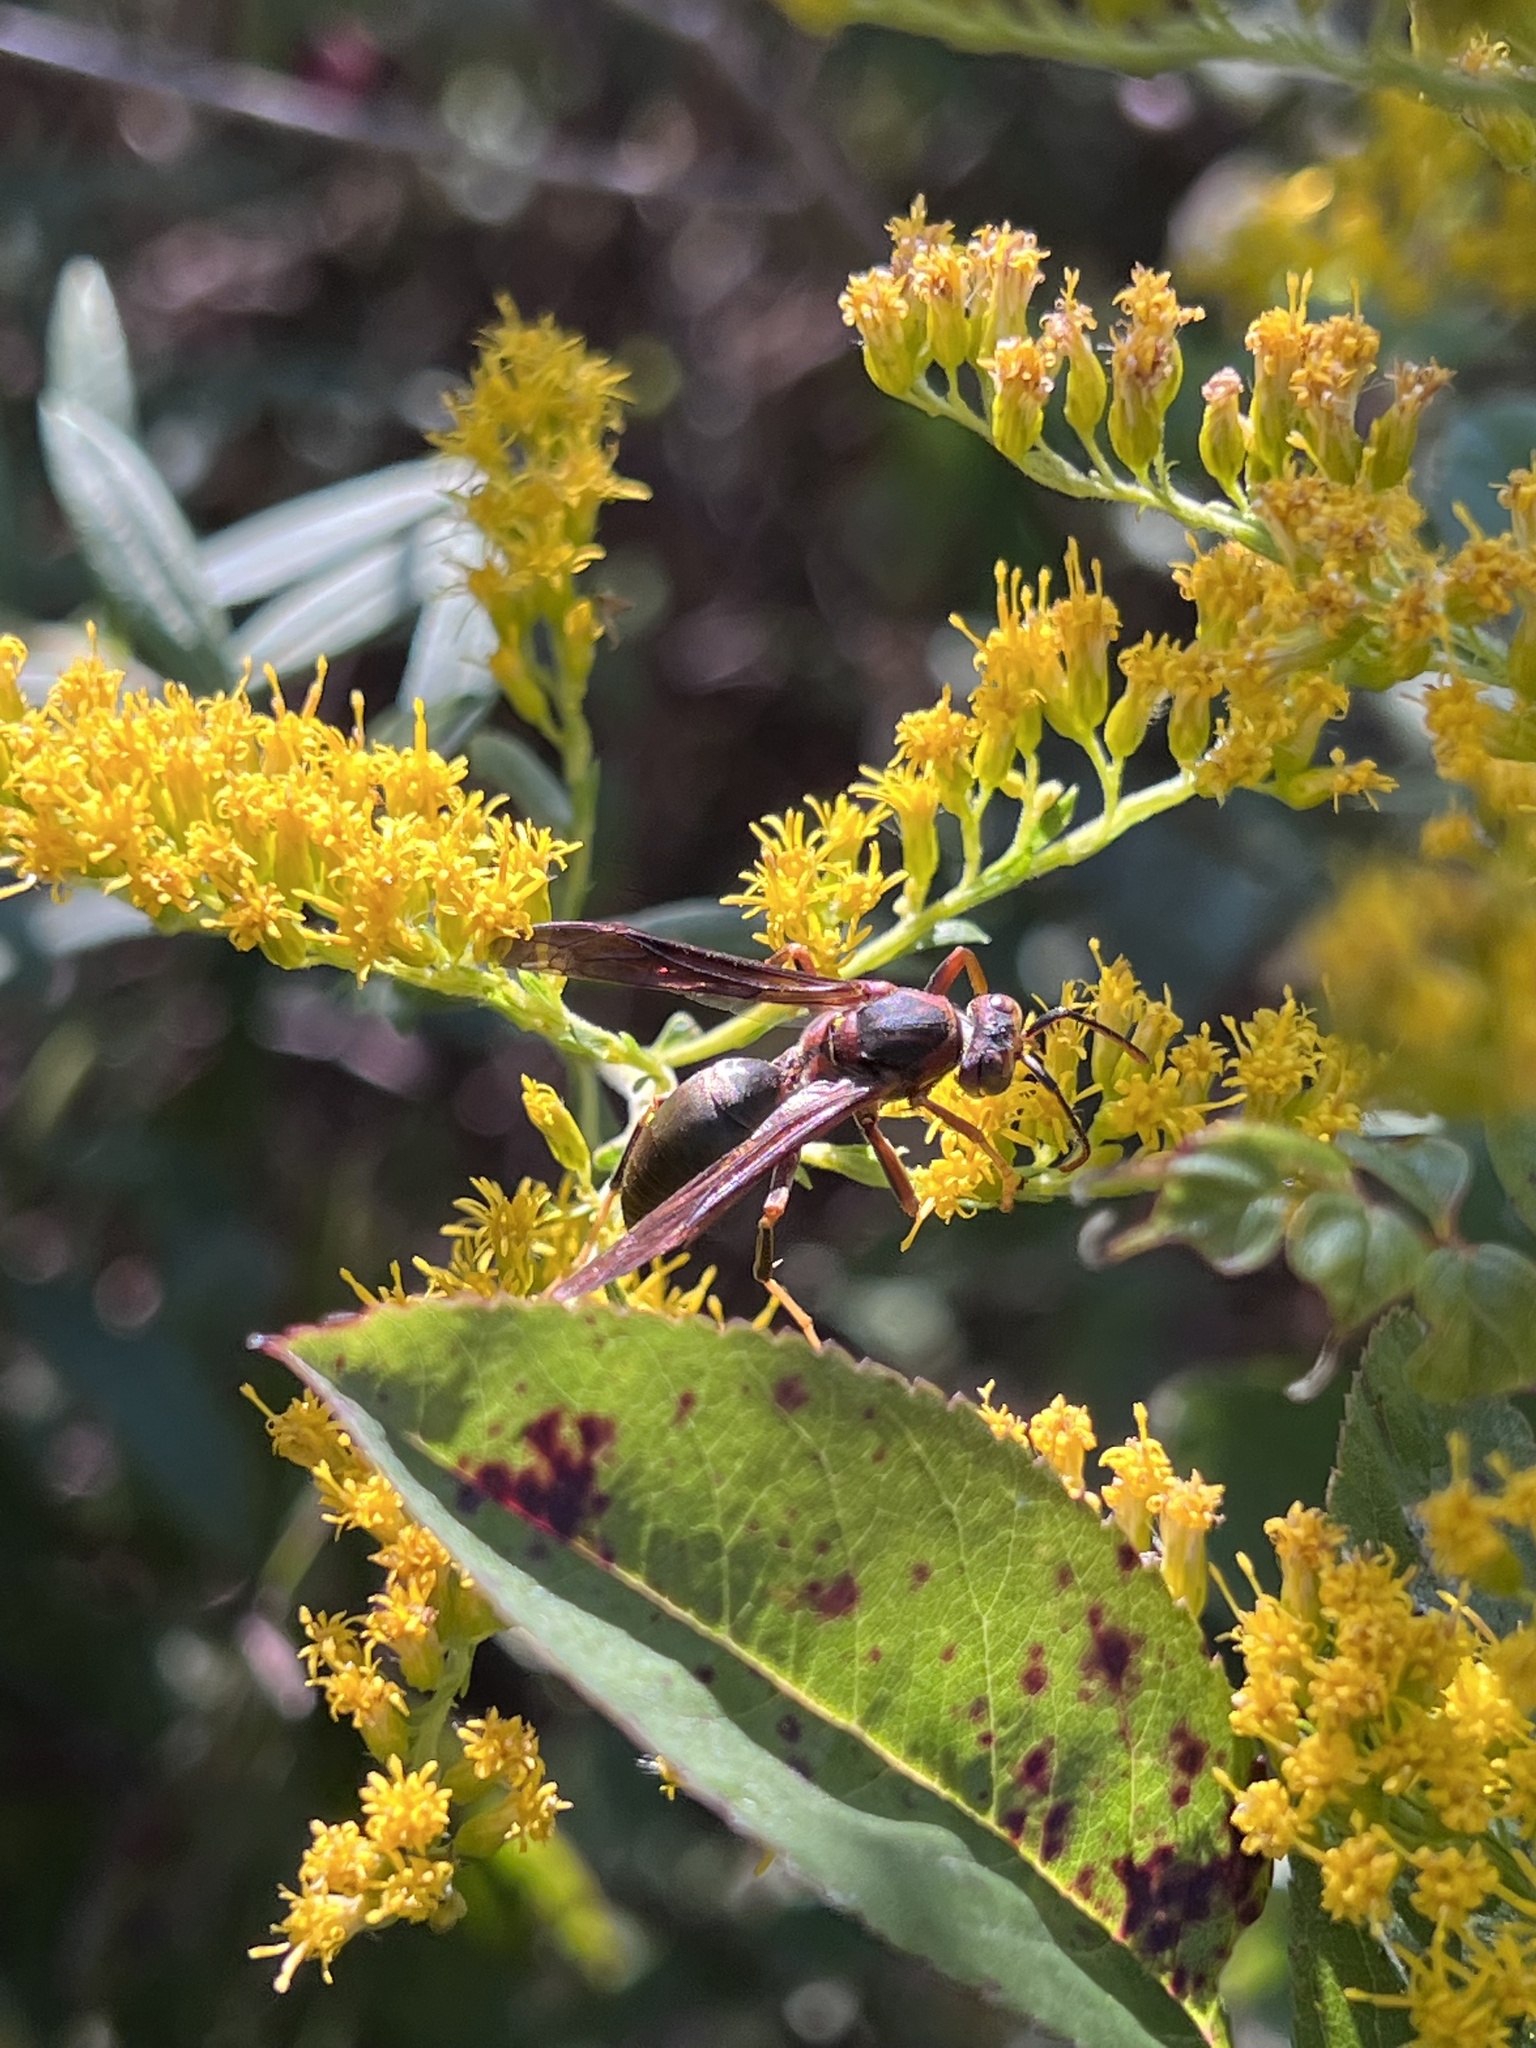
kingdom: Animalia
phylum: Arthropoda
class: Insecta
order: Hymenoptera
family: Eumenidae
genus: Polistes
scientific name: Polistes metricus
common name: Metric paper wasp
